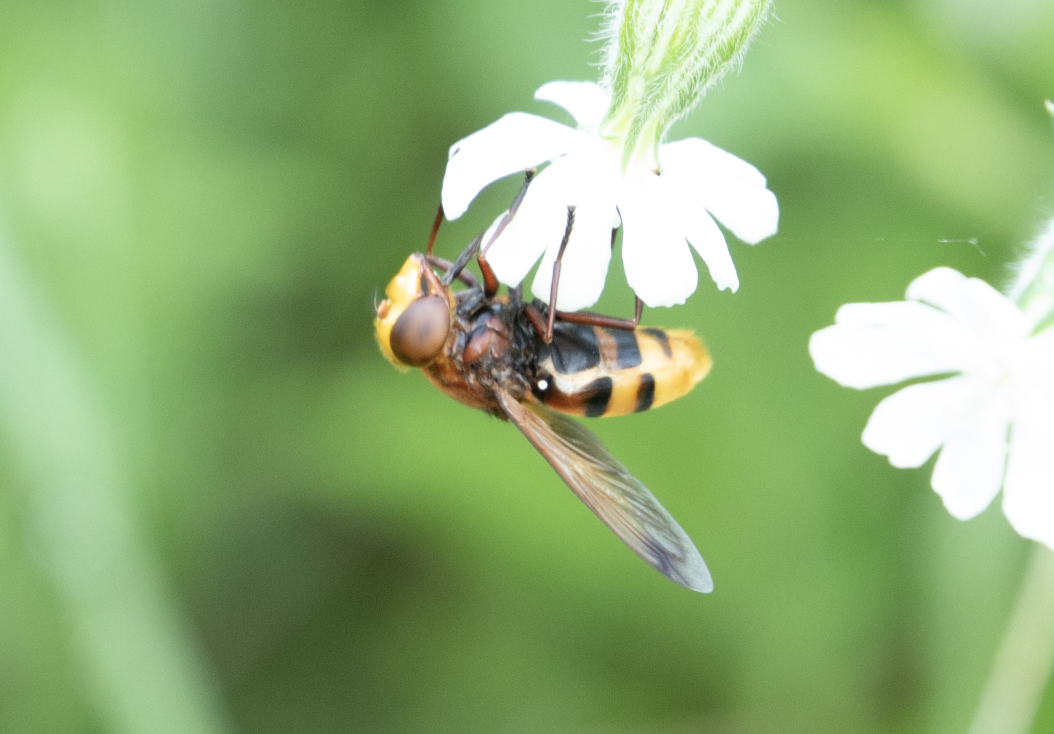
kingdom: Animalia
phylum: Arthropoda
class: Insecta
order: Diptera
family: Syrphidae
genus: Volucella
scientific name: Volucella zonaria
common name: Hornet hoverfly
